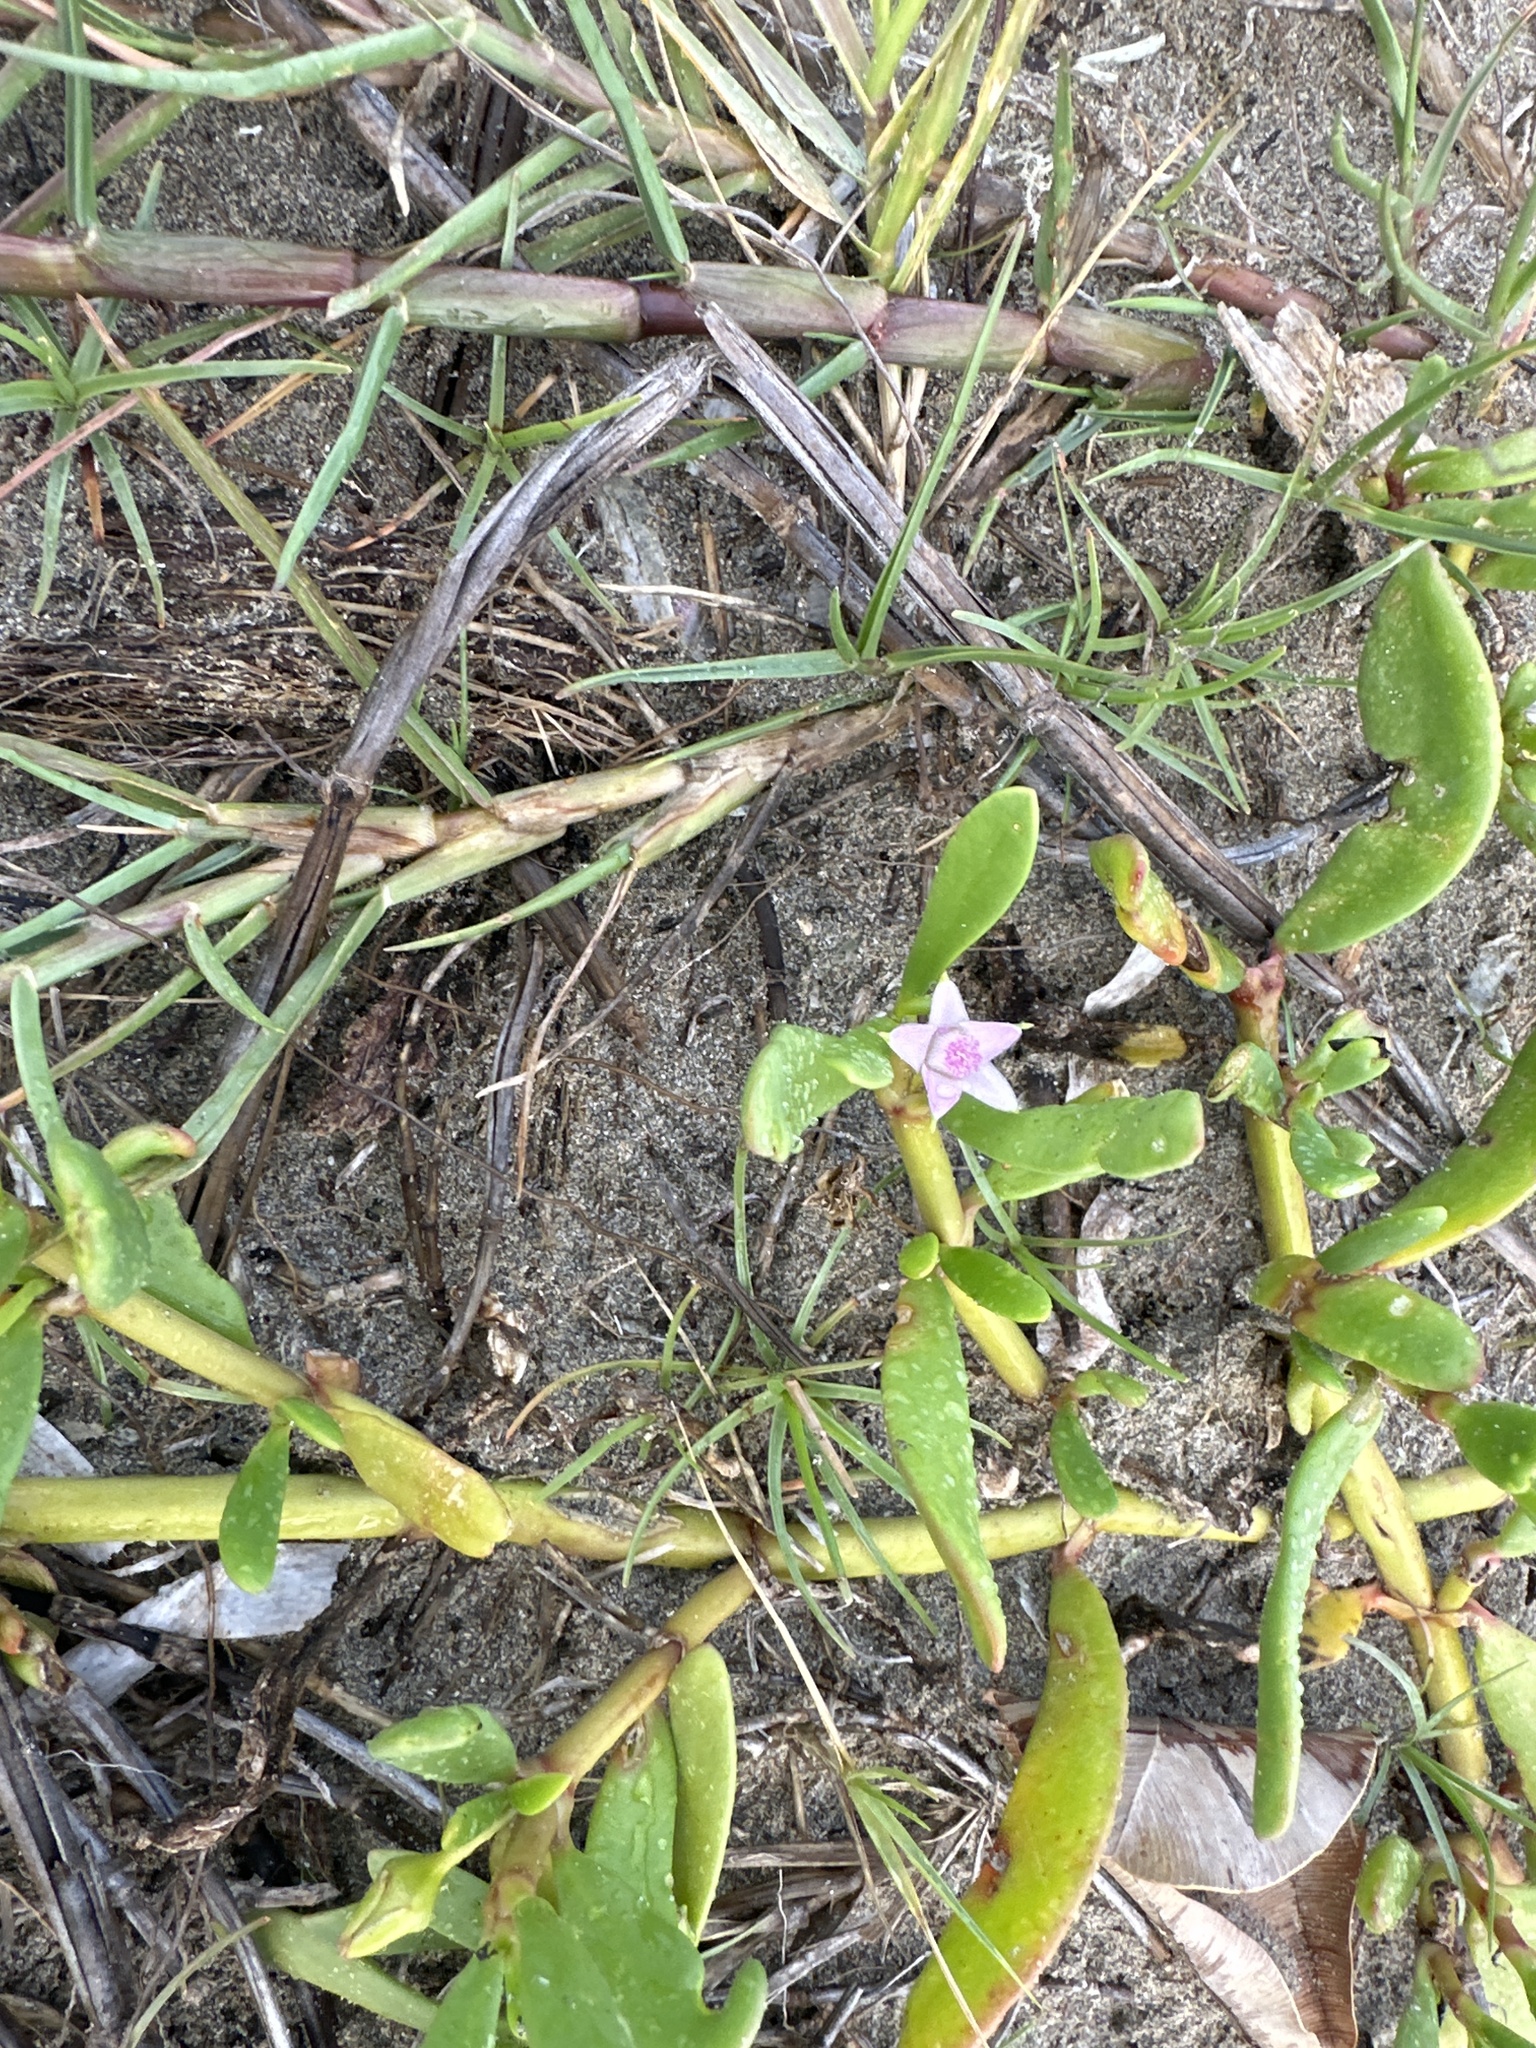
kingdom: Plantae
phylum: Tracheophyta
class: Magnoliopsida
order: Caryophyllales
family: Aizoaceae
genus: Sesuvium
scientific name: Sesuvium portulacastrum
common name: Sea-purslane
